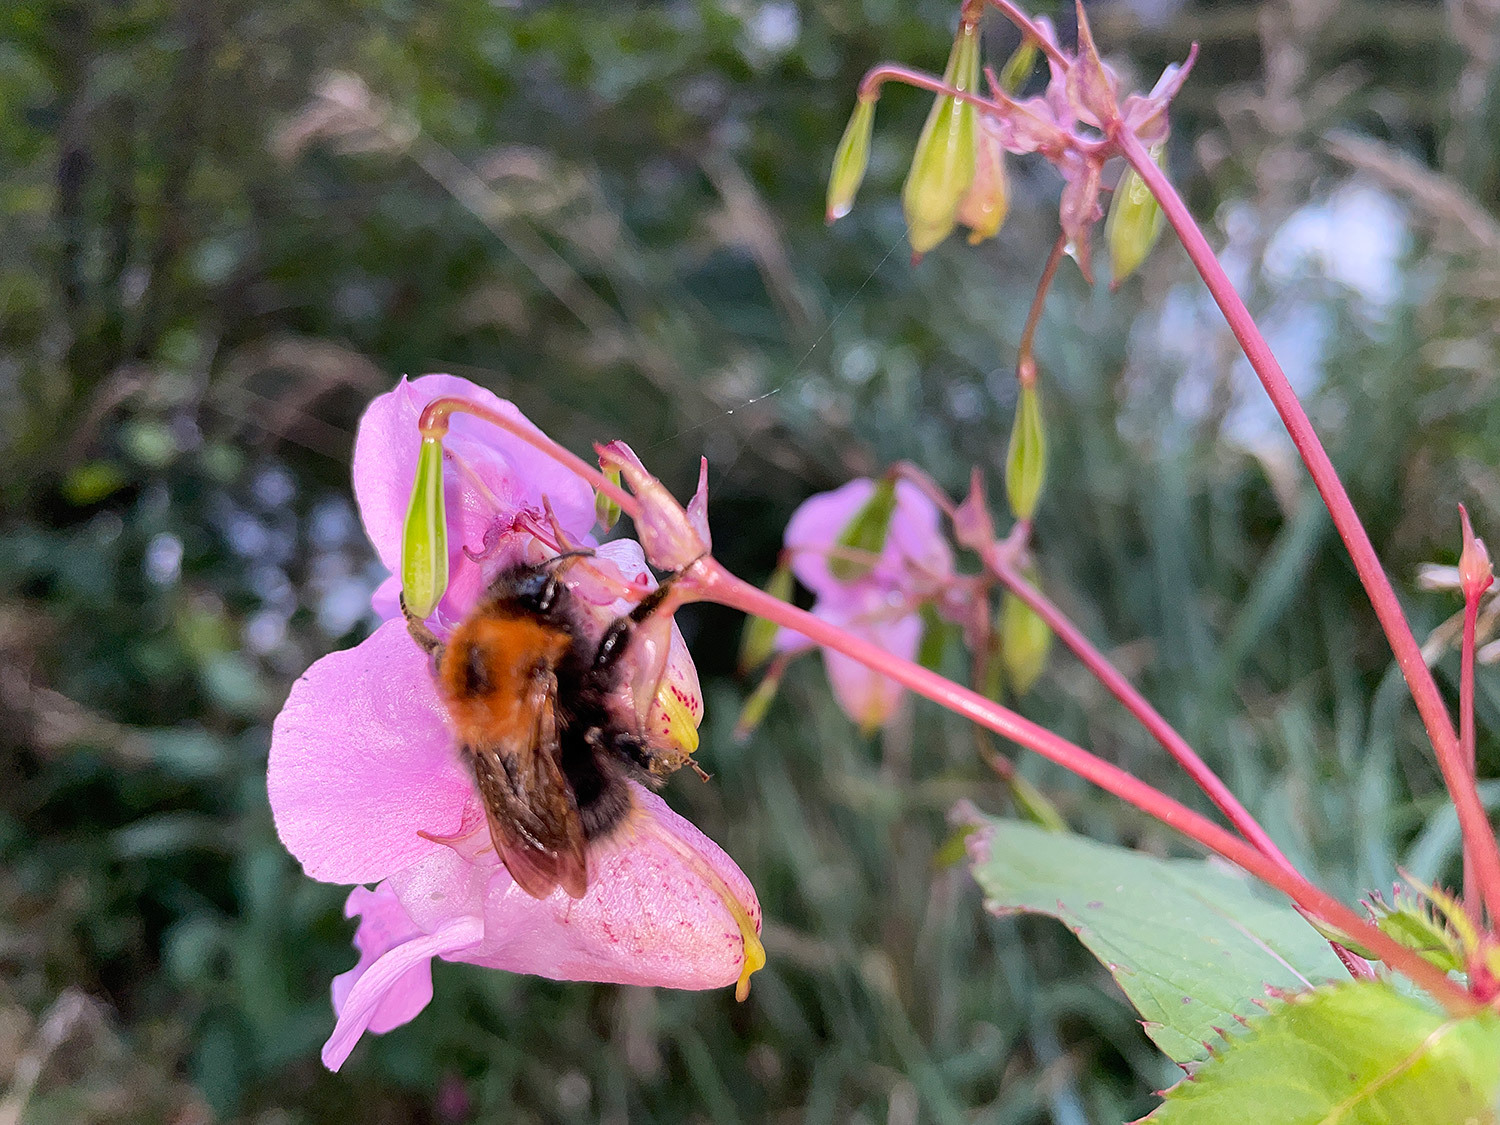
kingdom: Plantae
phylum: Tracheophyta
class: Magnoliopsida
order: Ericales
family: Balsaminaceae
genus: Impatiens
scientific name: Impatiens glandulifera
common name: Himalayan balsam
